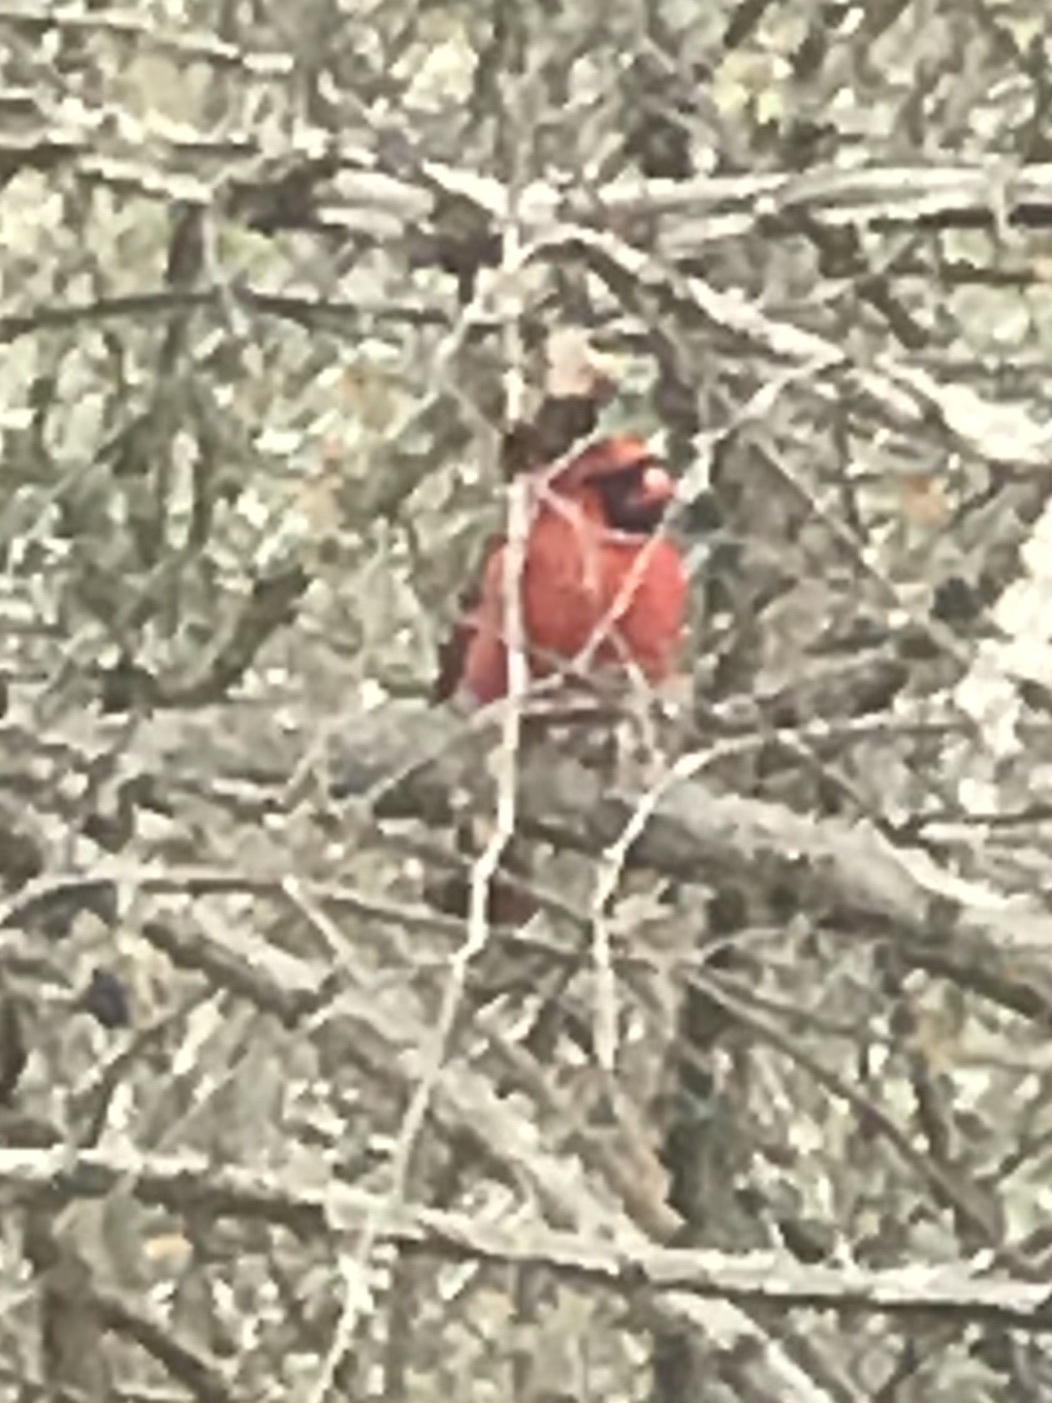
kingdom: Animalia
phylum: Chordata
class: Aves
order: Passeriformes
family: Cardinalidae
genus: Cardinalis
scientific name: Cardinalis cardinalis
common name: Northern cardinal
